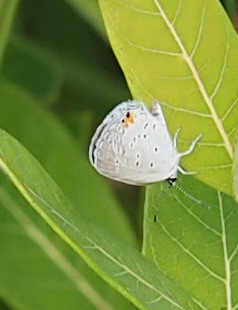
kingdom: Animalia
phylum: Arthropoda
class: Insecta
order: Lepidoptera
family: Lycaenidae
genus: Elkalyce
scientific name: Elkalyce comyntas
